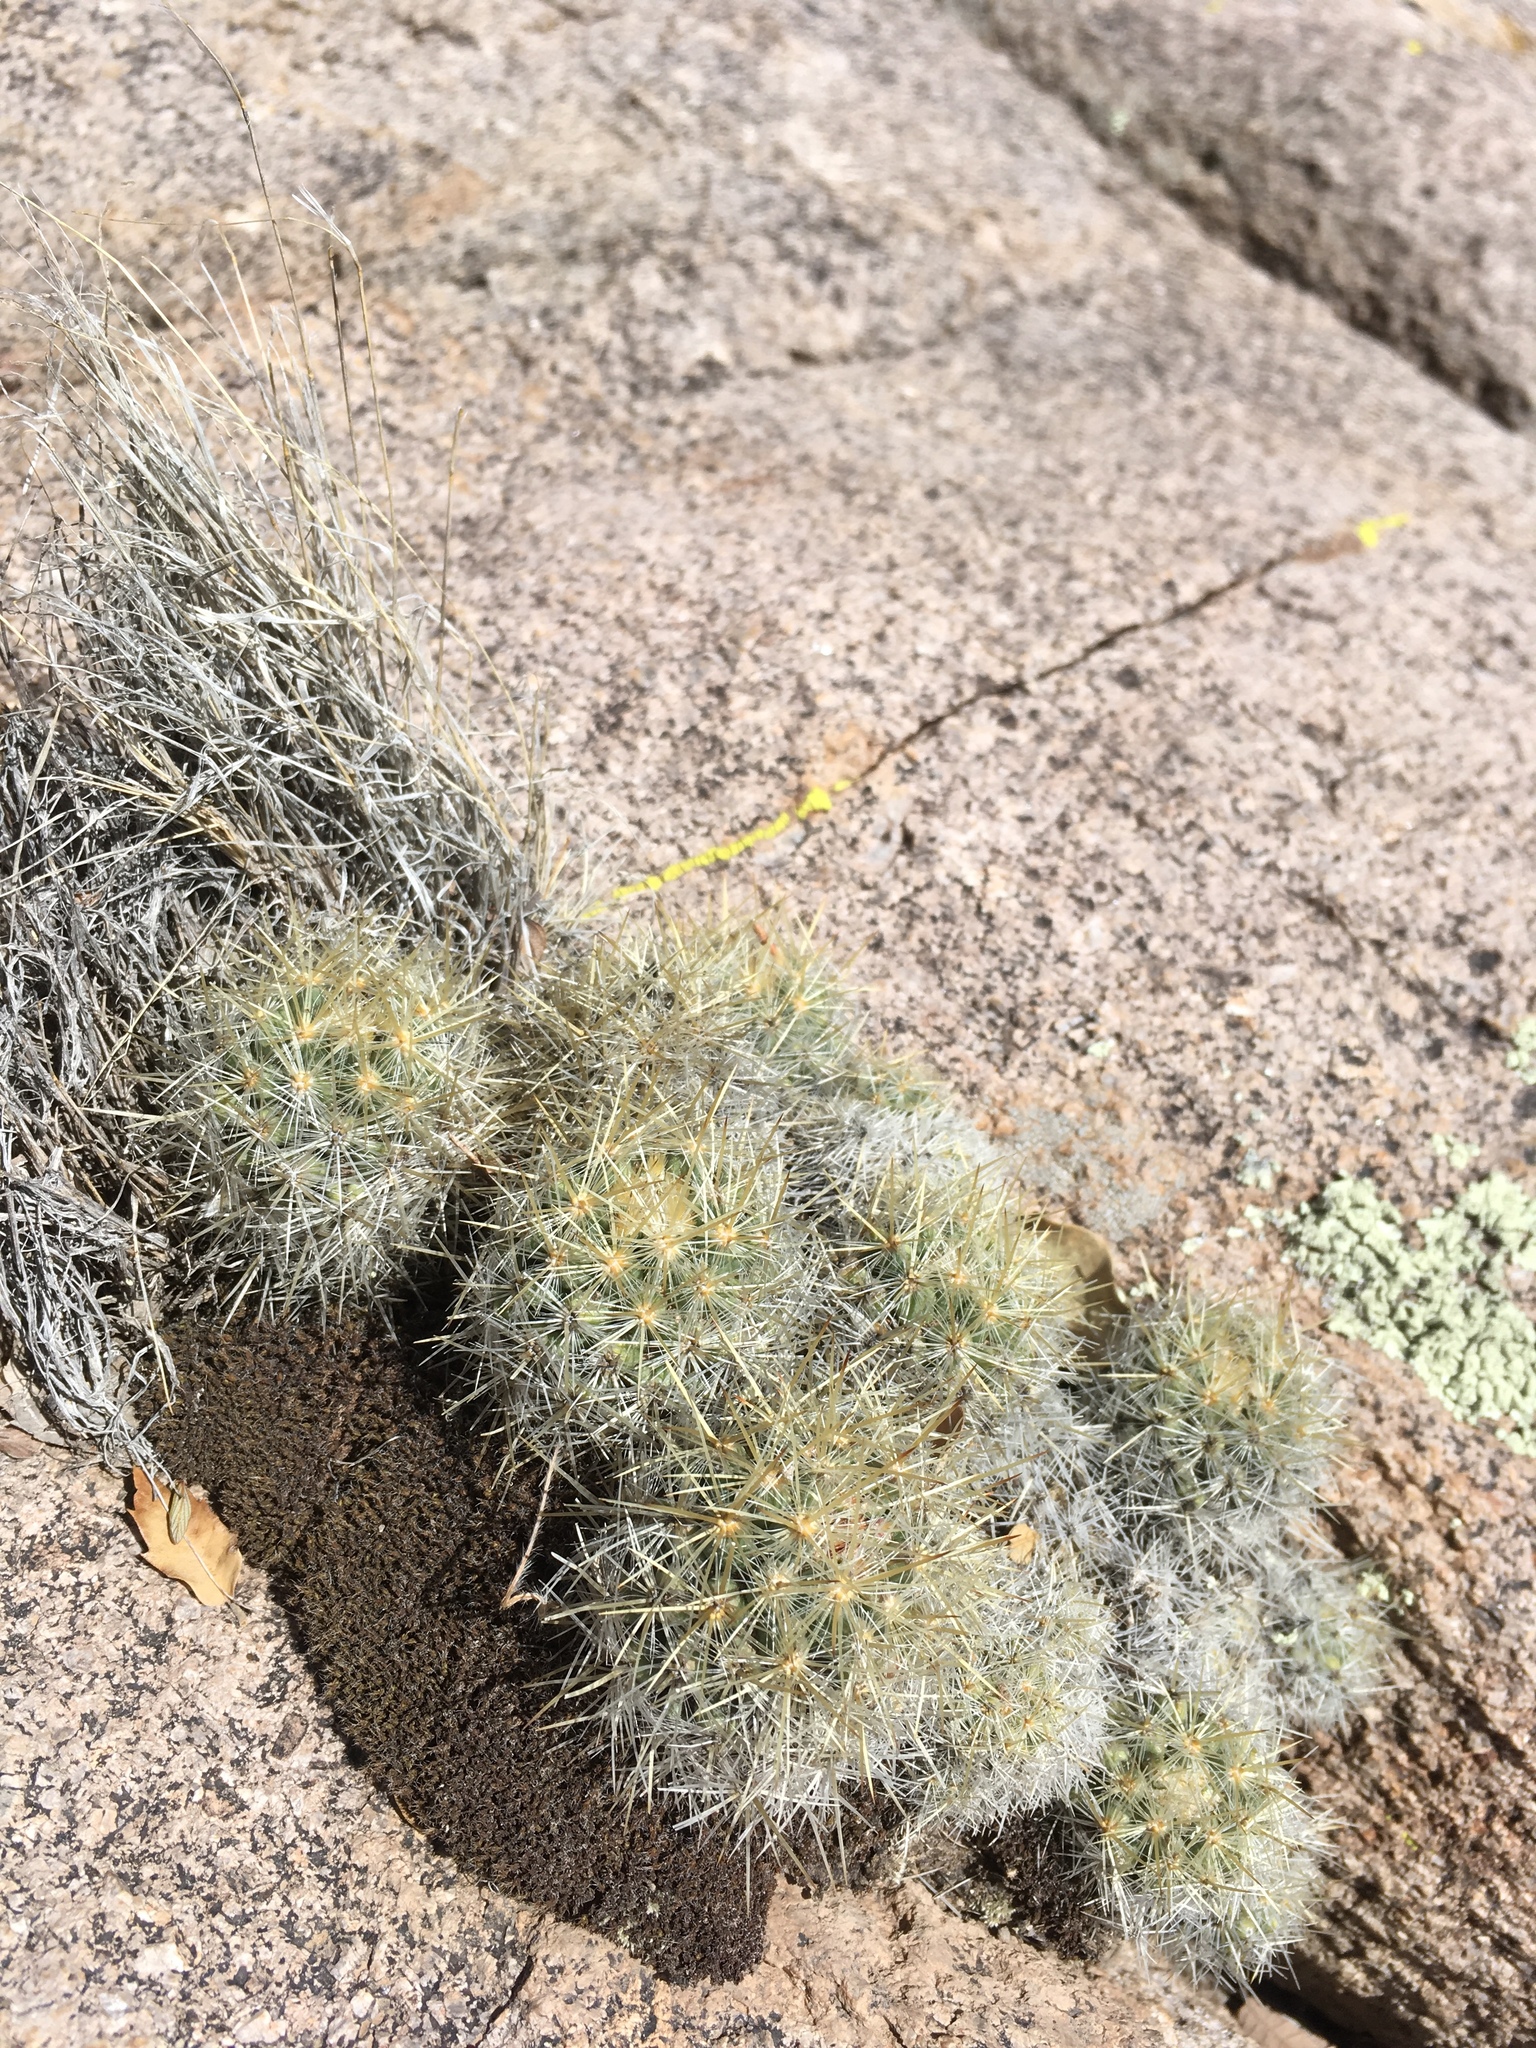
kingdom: Plantae
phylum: Tracheophyta
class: Magnoliopsida
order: Caryophyllales
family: Cactaceae
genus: Pelecyphora
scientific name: Pelecyphora sneedii
